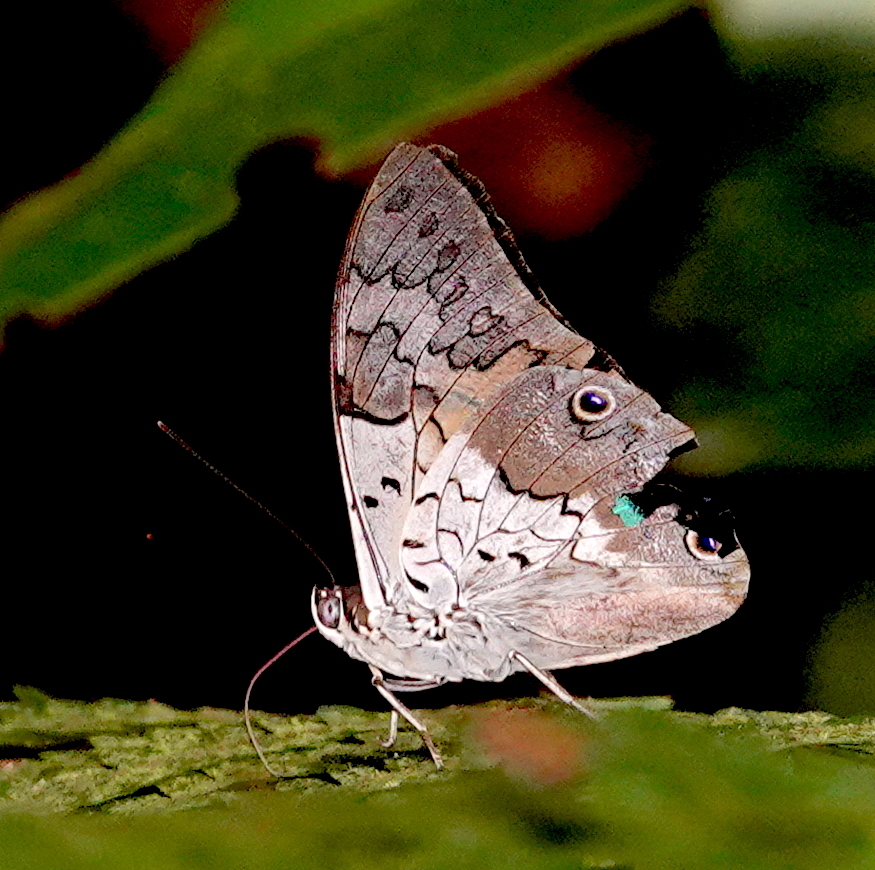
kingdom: Animalia
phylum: Arthropoda
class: Insecta
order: Lepidoptera
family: Nymphalidae
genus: Prepona
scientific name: Prepona laertes
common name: Butterfly
